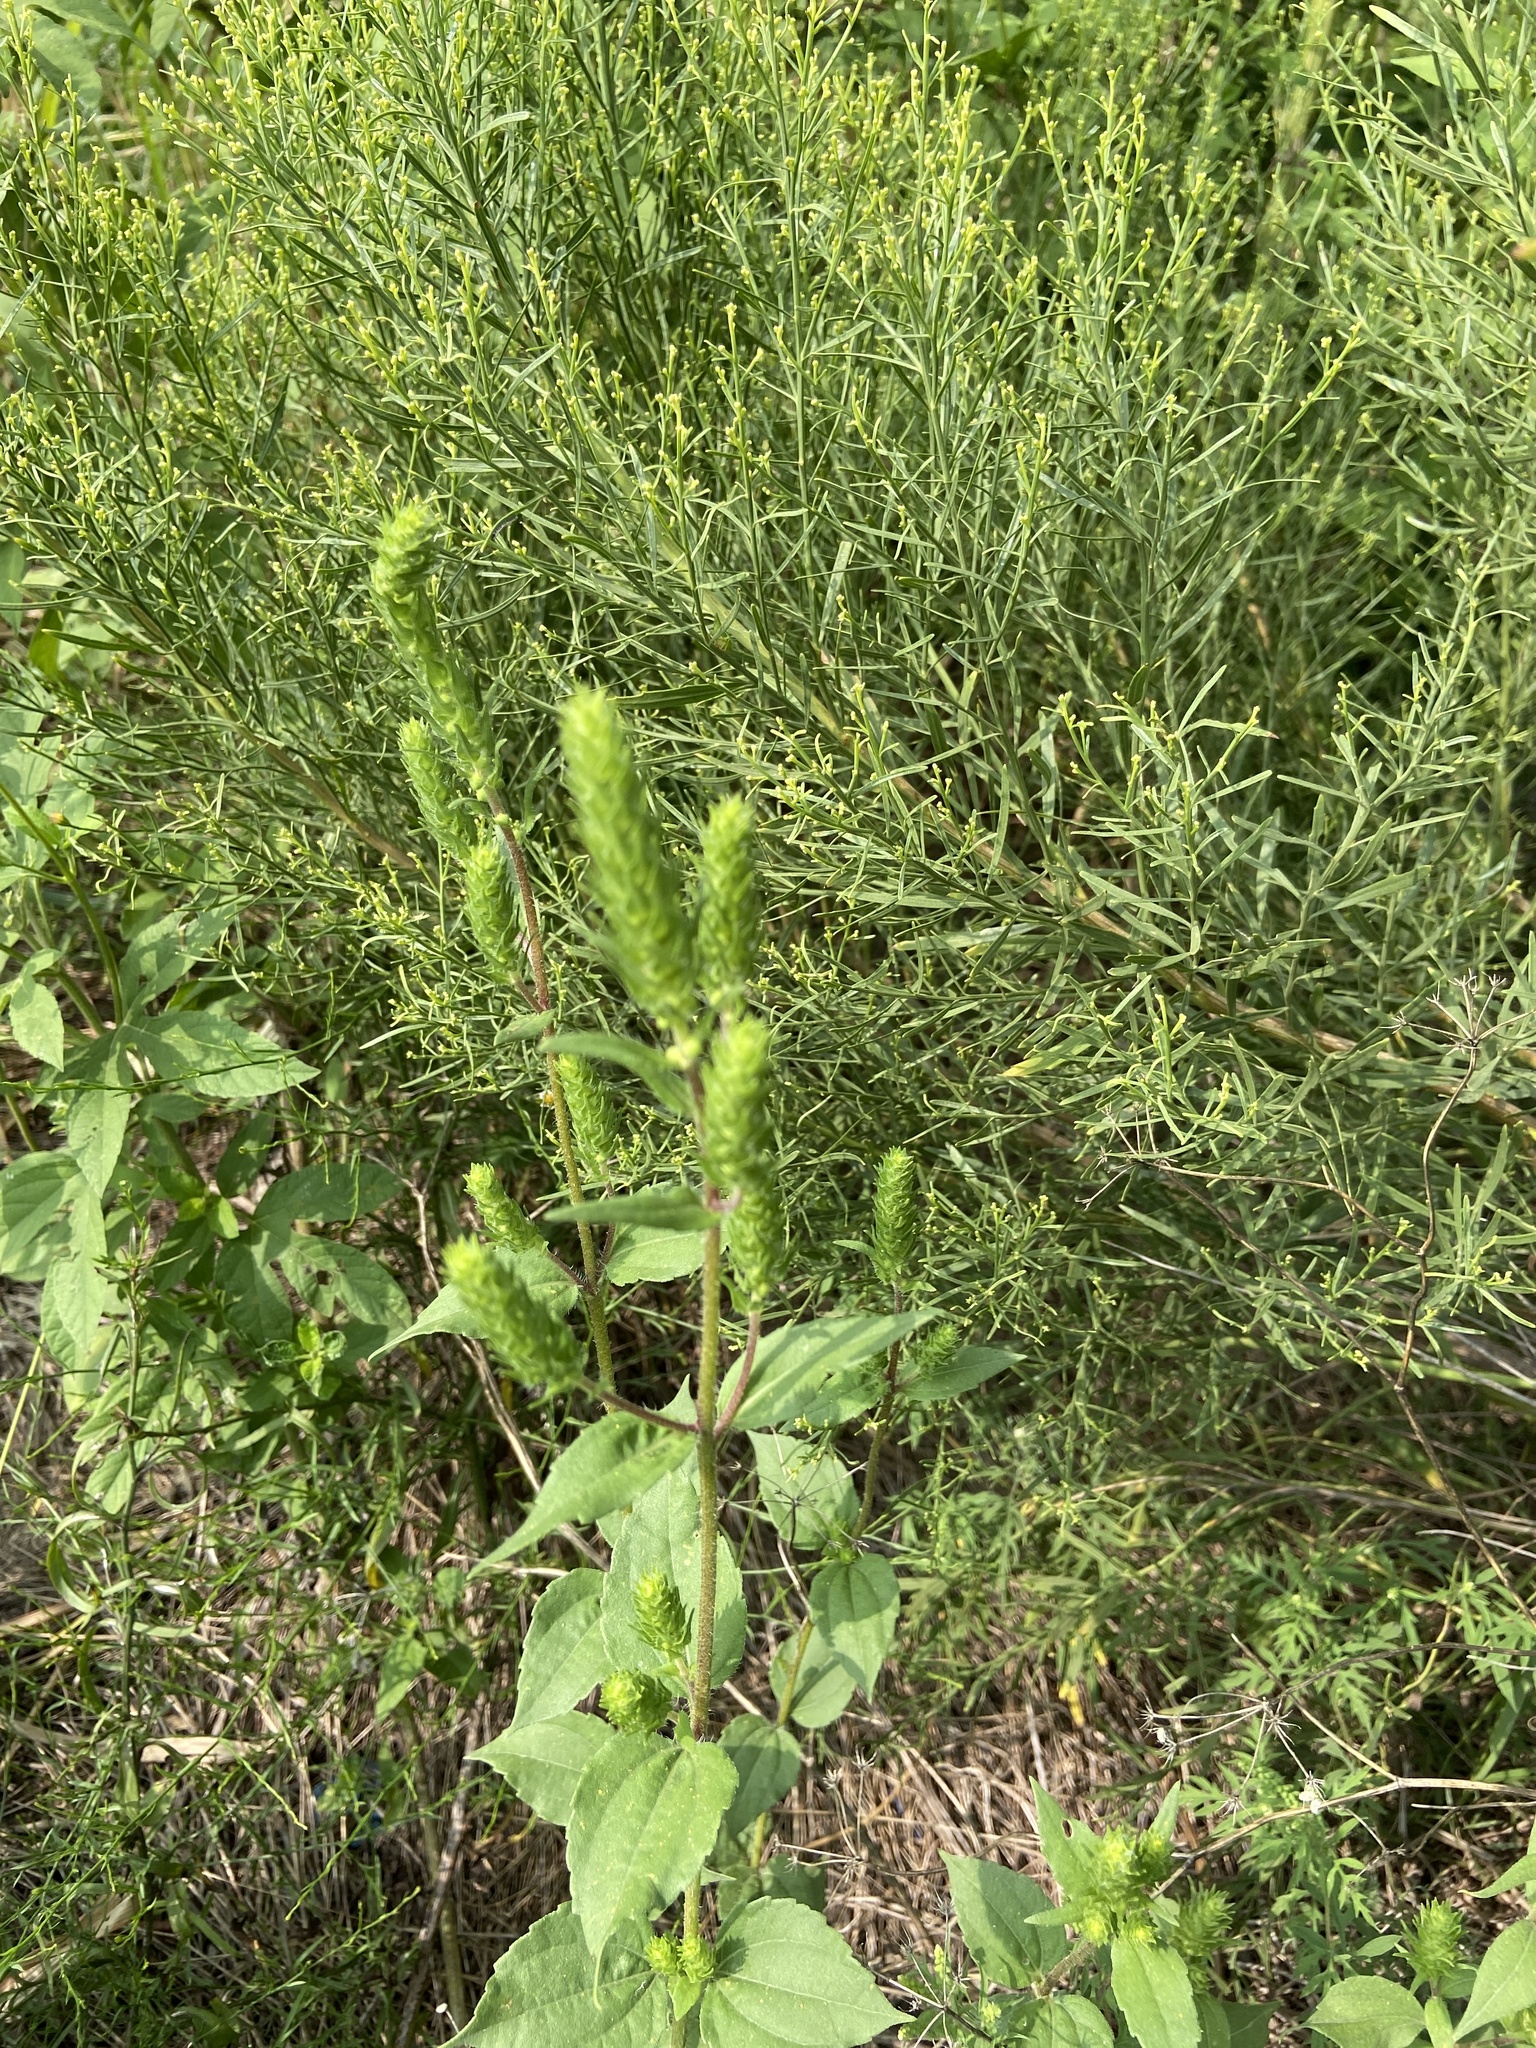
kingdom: Plantae
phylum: Tracheophyta
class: Magnoliopsida
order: Asterales
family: Asteraceae
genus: Iva
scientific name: Iva annua
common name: Marsh-elder
